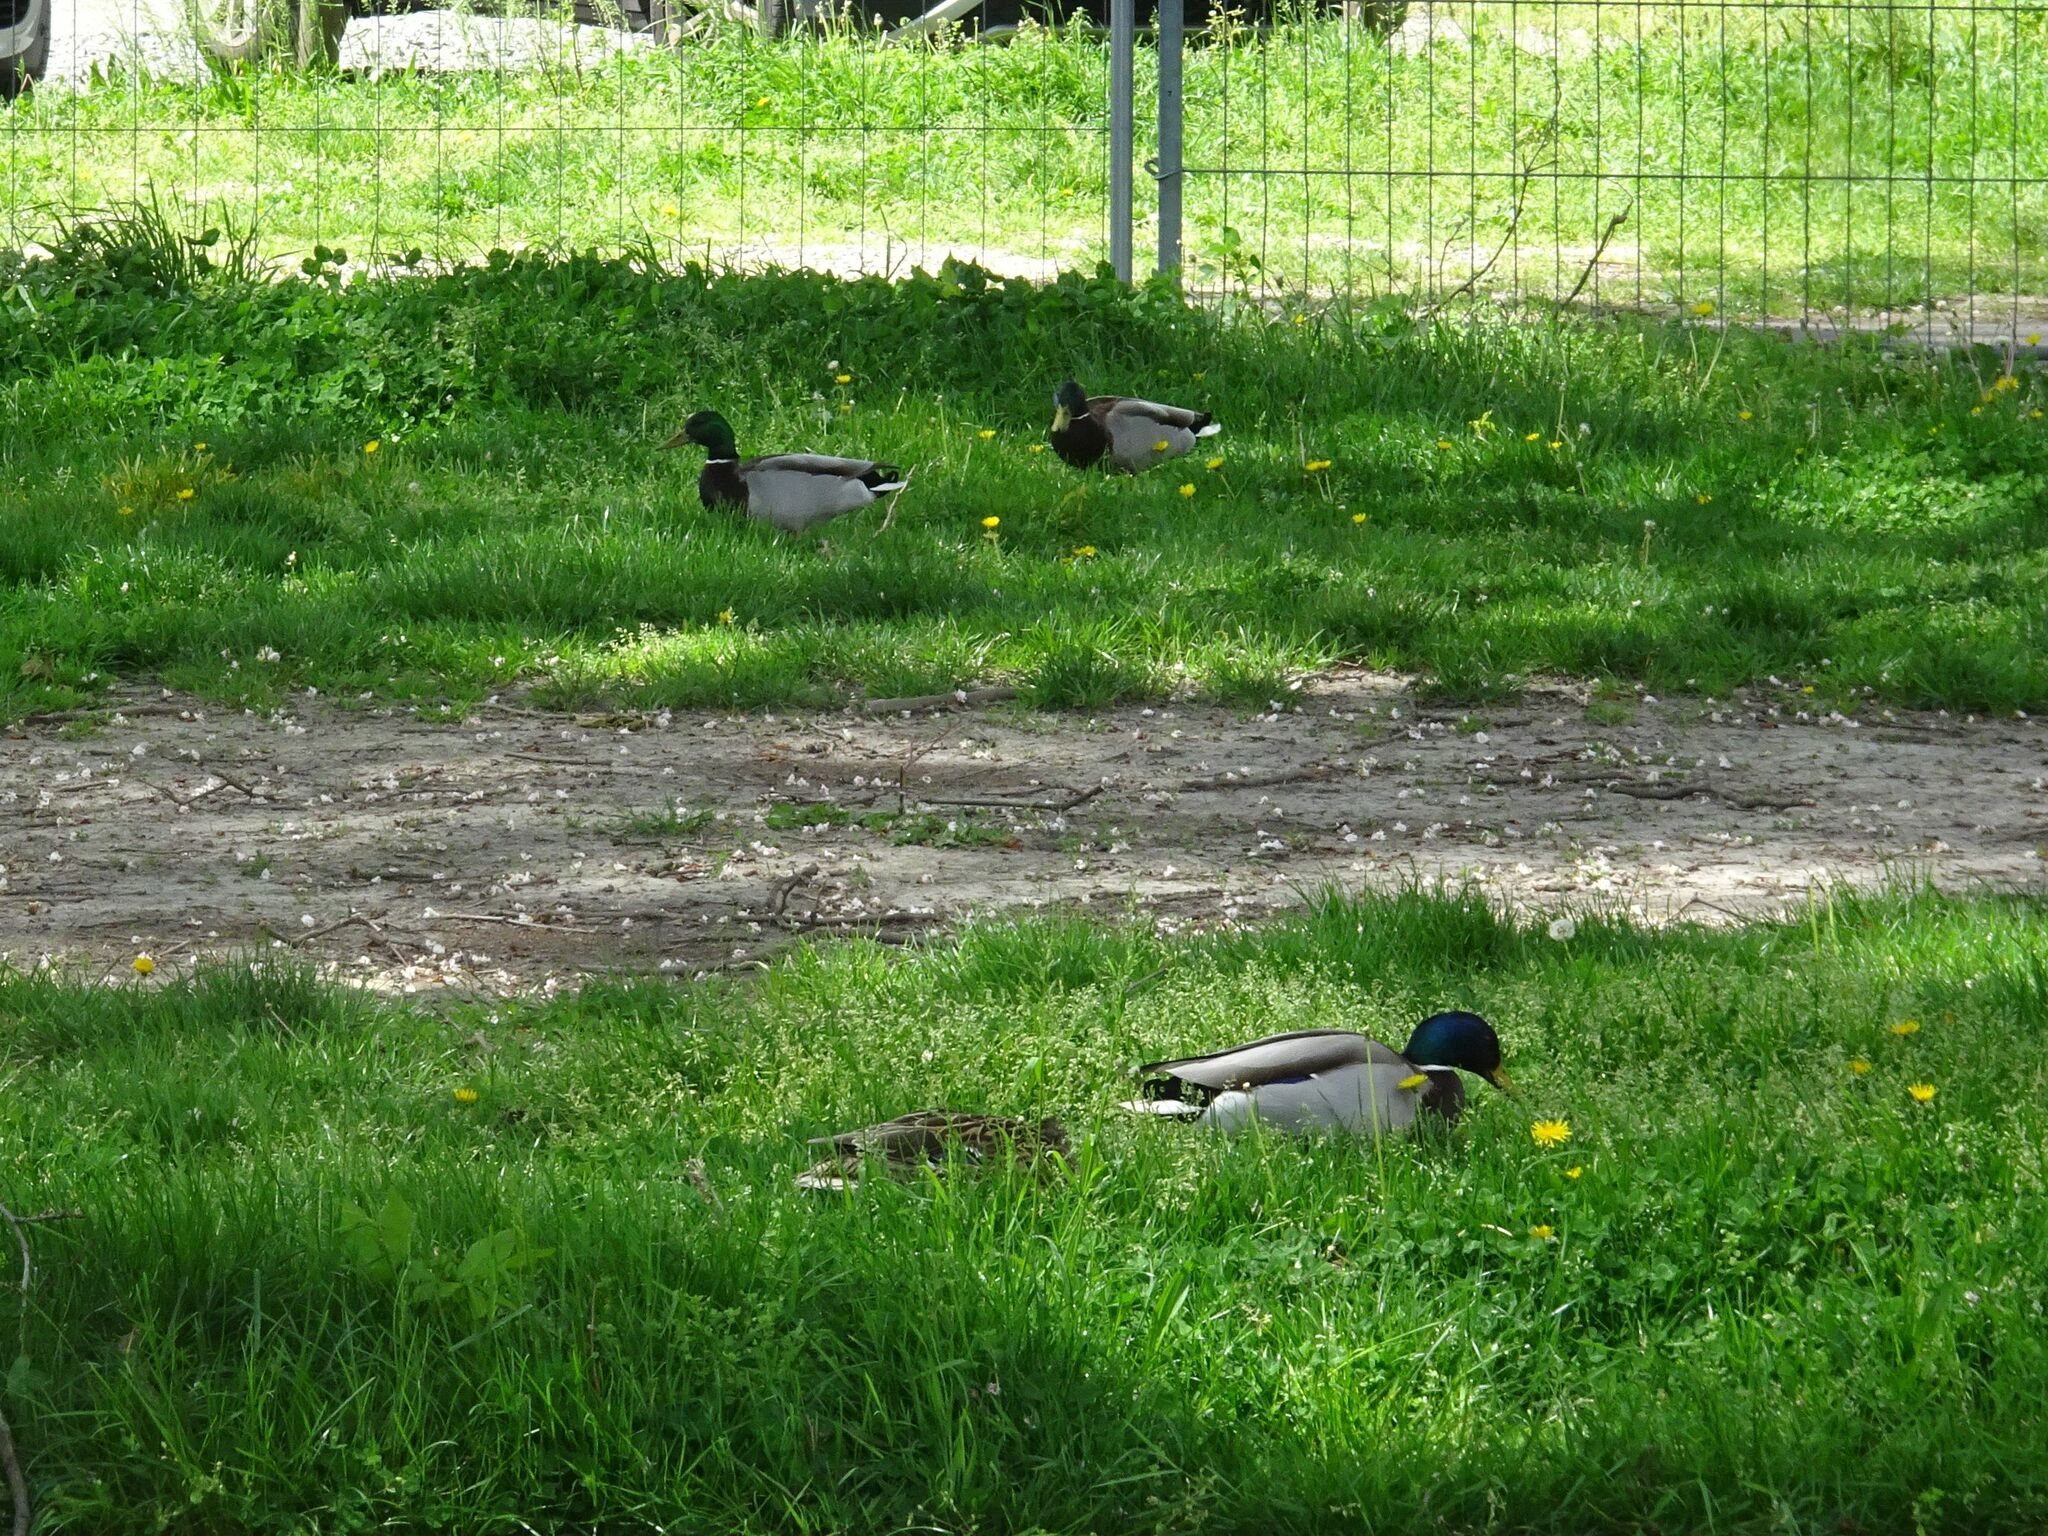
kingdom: Animalia
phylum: Chordata
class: Aves
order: Anseriformes
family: Anatidae
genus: Anas
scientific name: Anas platyrhynchos
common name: Mallard
